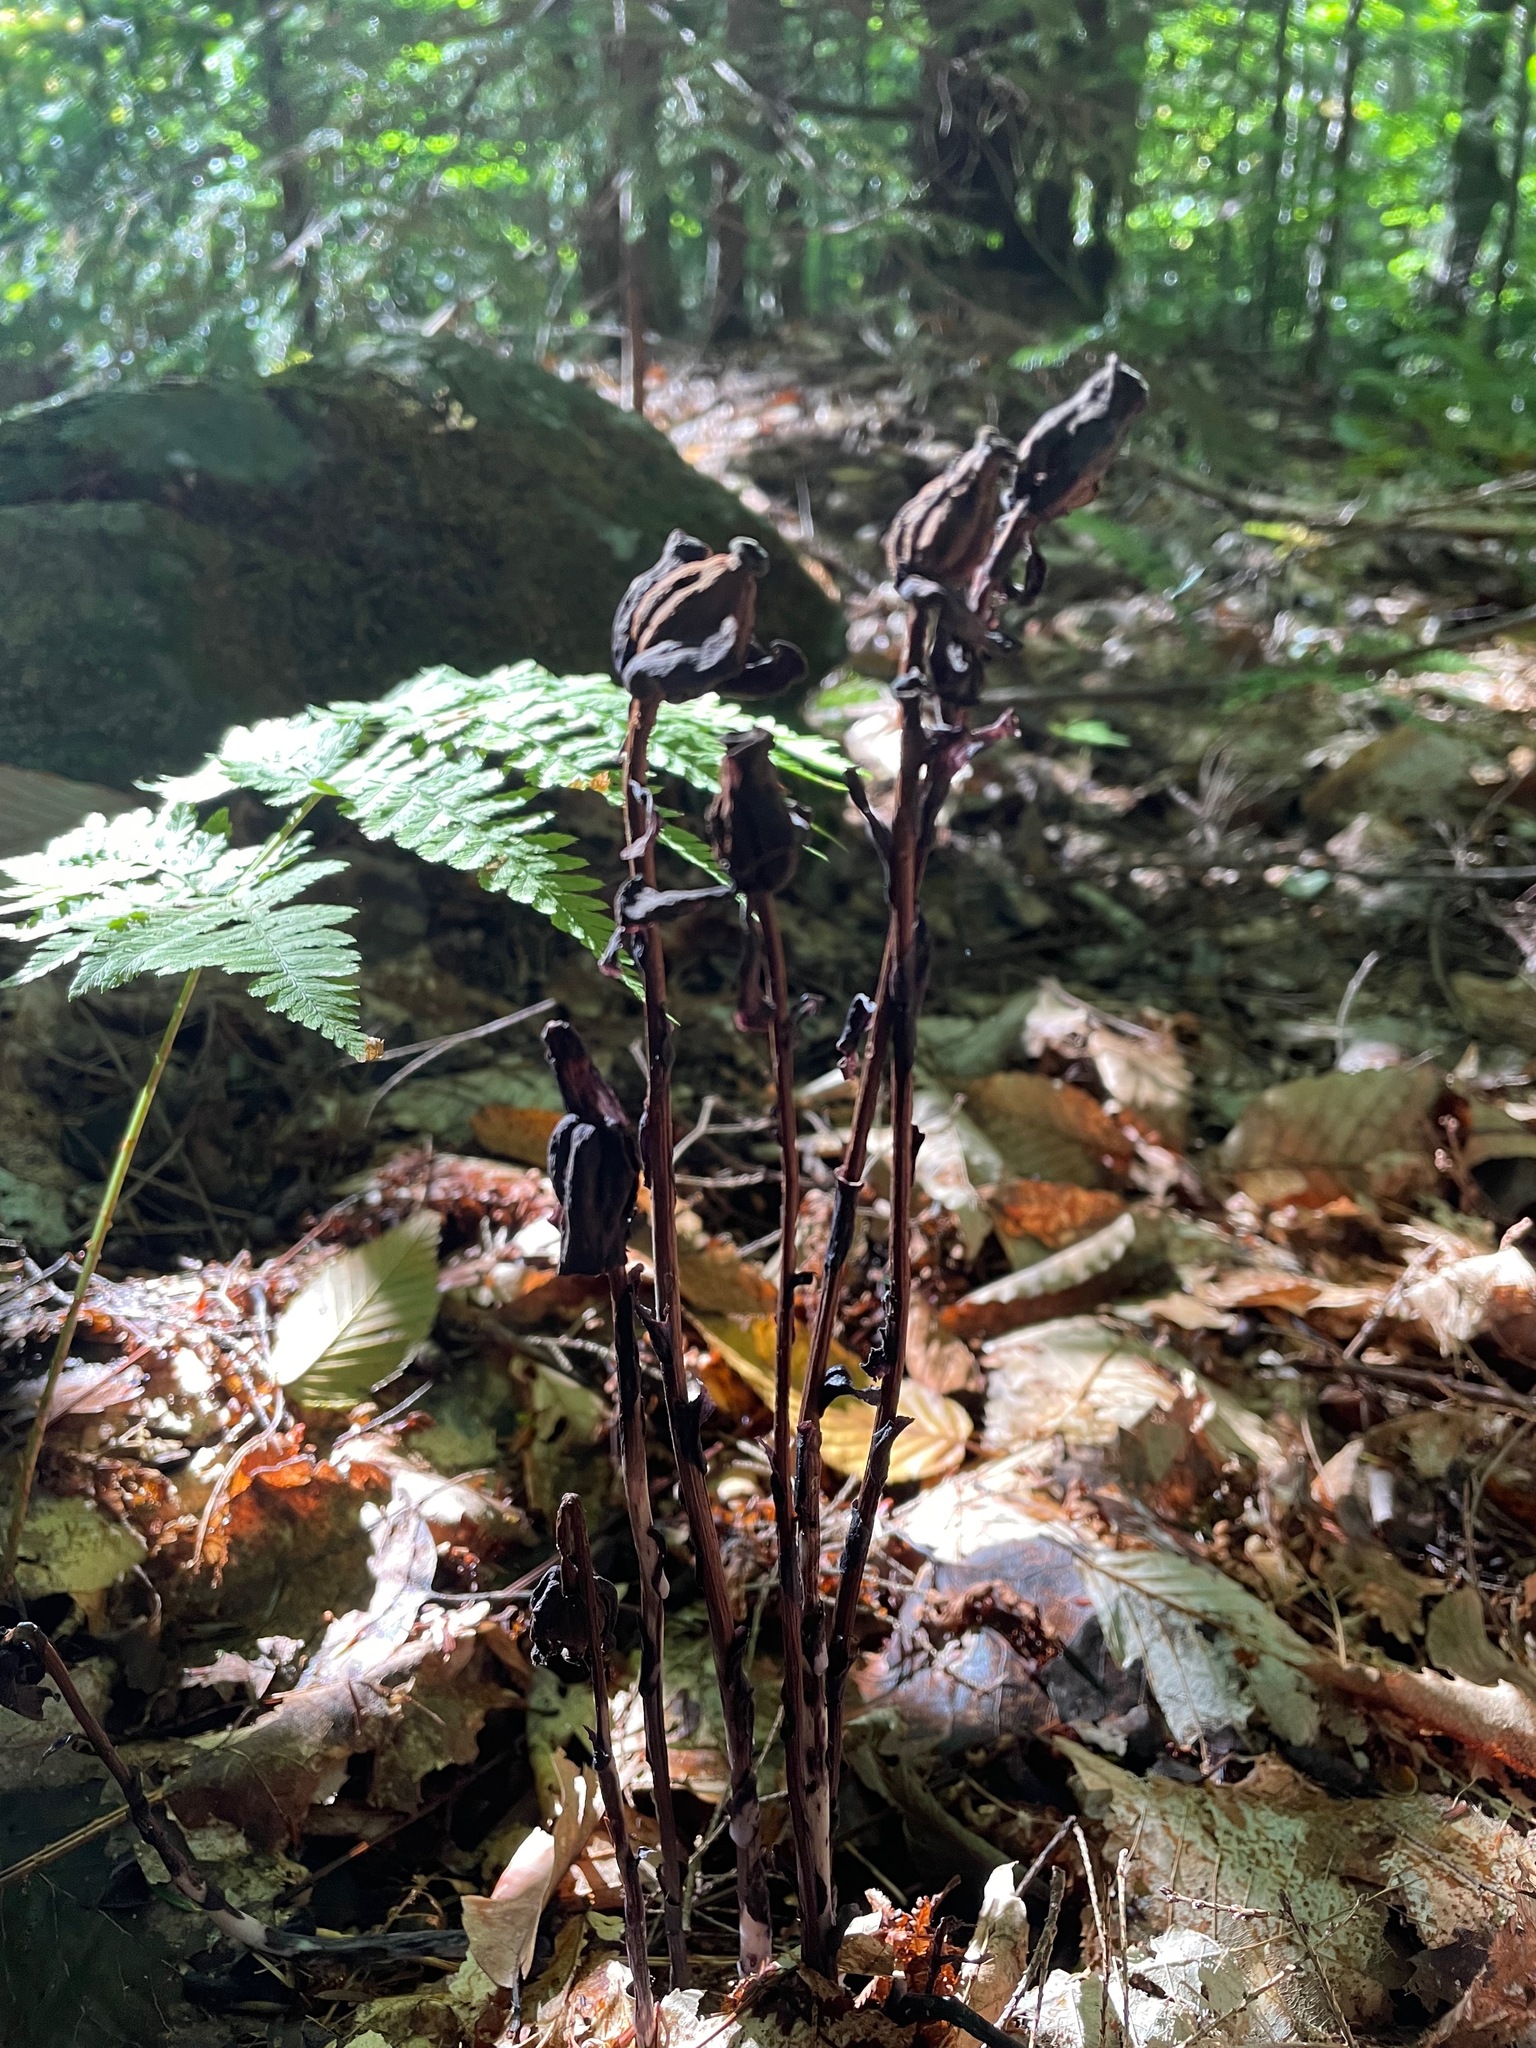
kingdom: Plantae
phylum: Tracheophyta
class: Magnoliopsida
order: Ericales
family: Ericaceae
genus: Monotropa
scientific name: Monotropa uniflora
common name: Convulsion root
